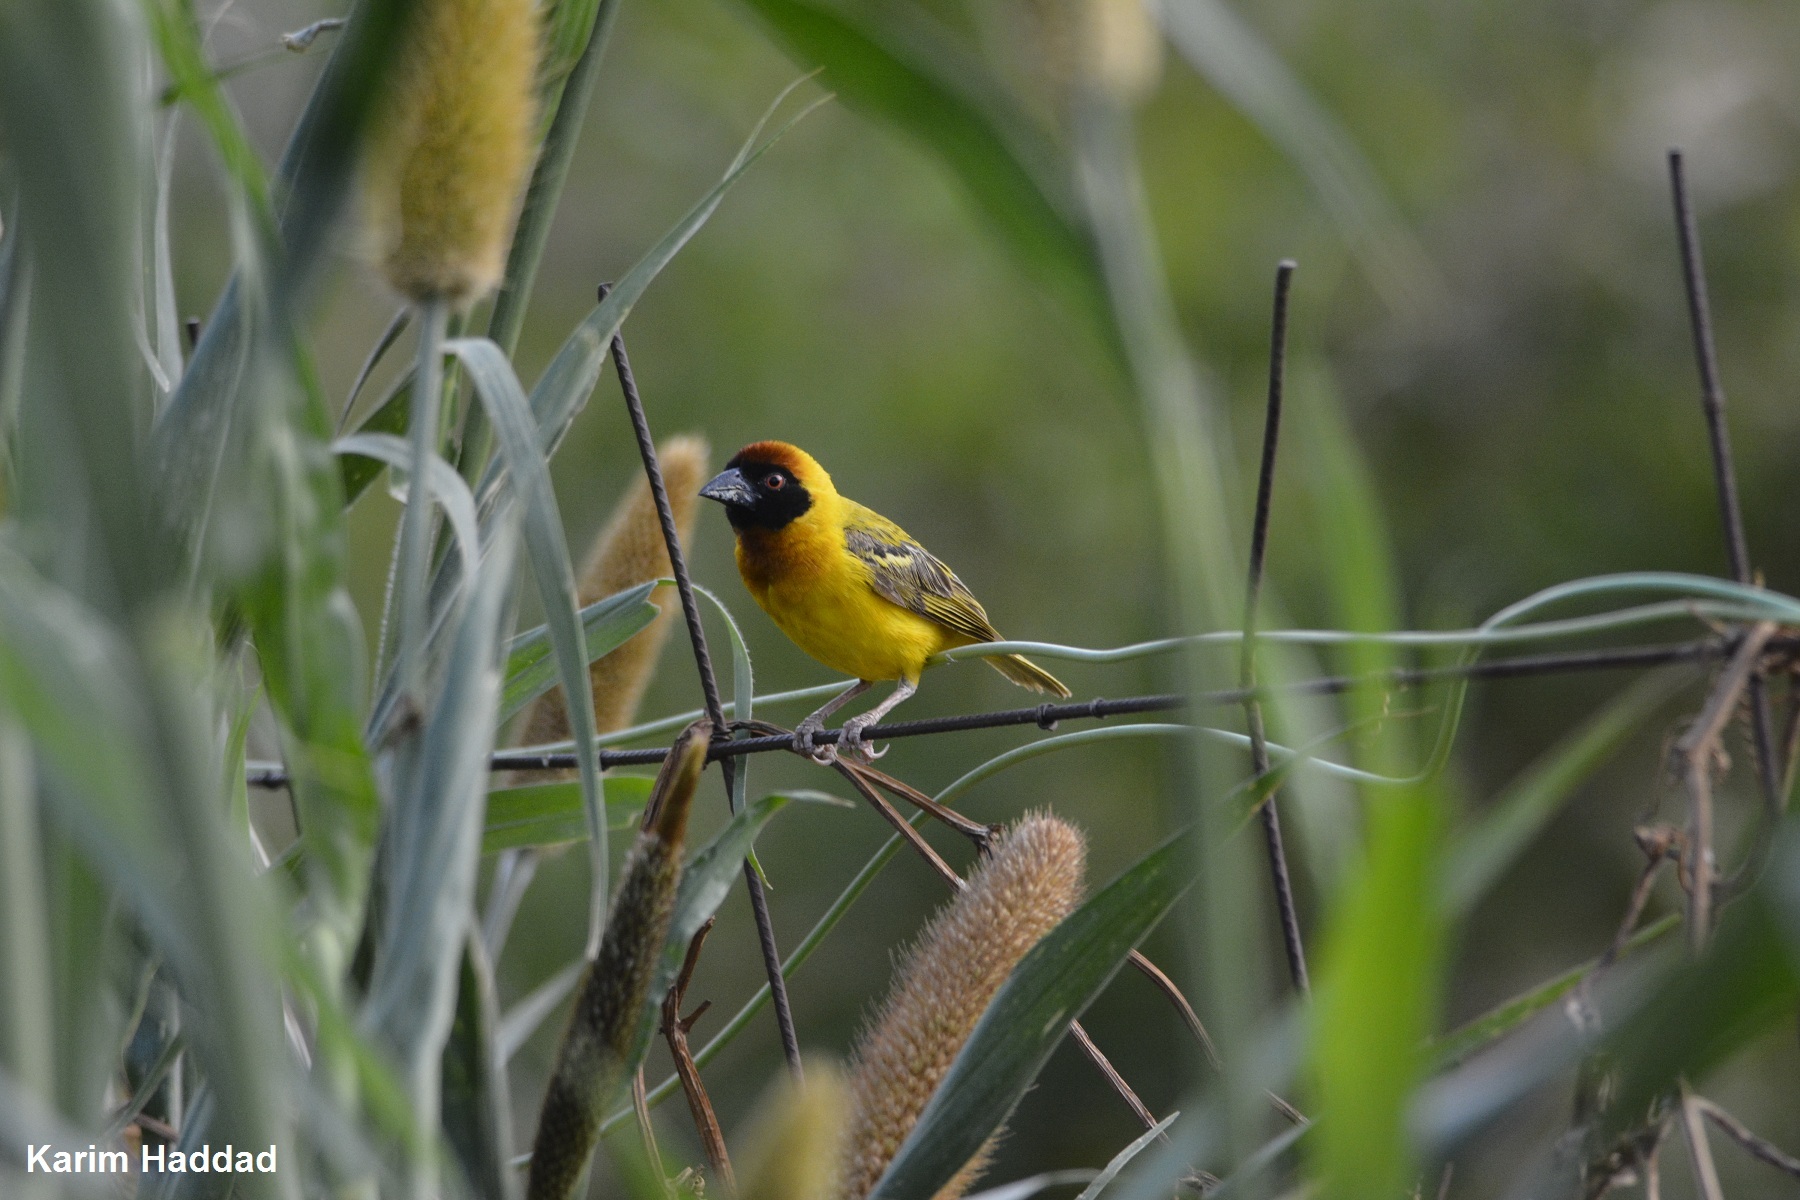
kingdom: Animalia
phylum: Chordata
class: Aves
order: Passeriformes
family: Ploceidae
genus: Ploceus
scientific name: Ploceus vitellinus
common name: Vitelline masked weaver
